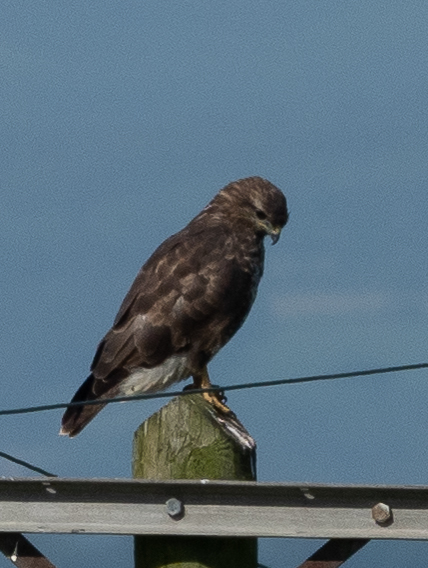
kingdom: Animalia
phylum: Chordata
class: Aves
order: Accipitriformes
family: Accipitridae
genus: Buteo
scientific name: Buteo buteo
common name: Common buzzard
